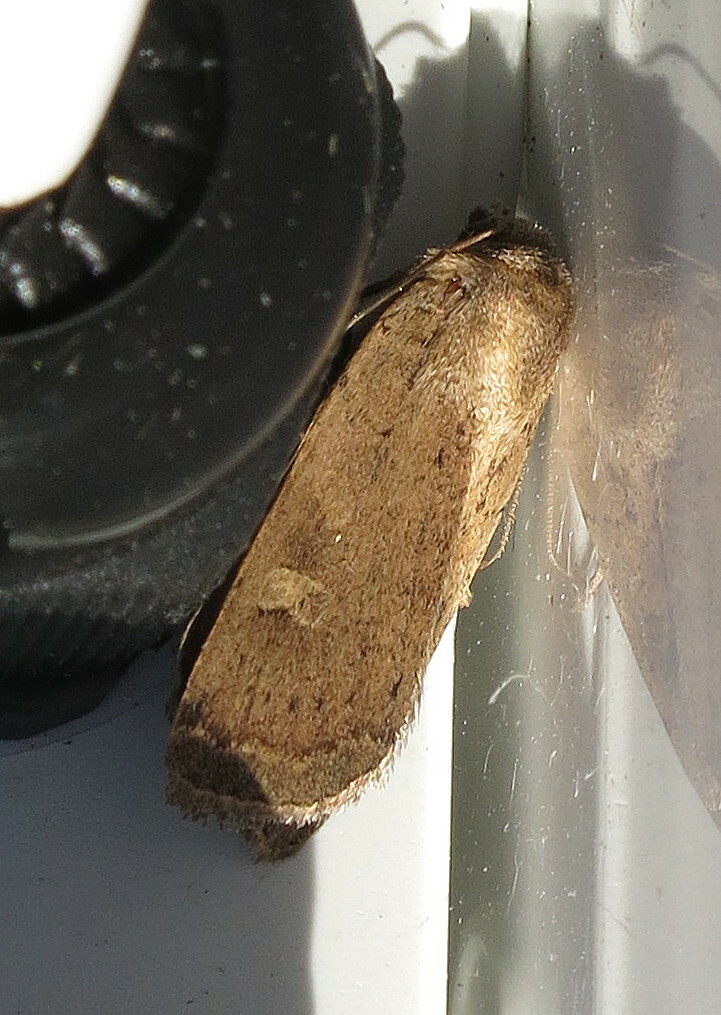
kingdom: Animalia
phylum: Arthropoda
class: Insecta
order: Lepidoptera
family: Noctuidae
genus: Xestia
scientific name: Xestia xanthographa
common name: Square-spot rustic
